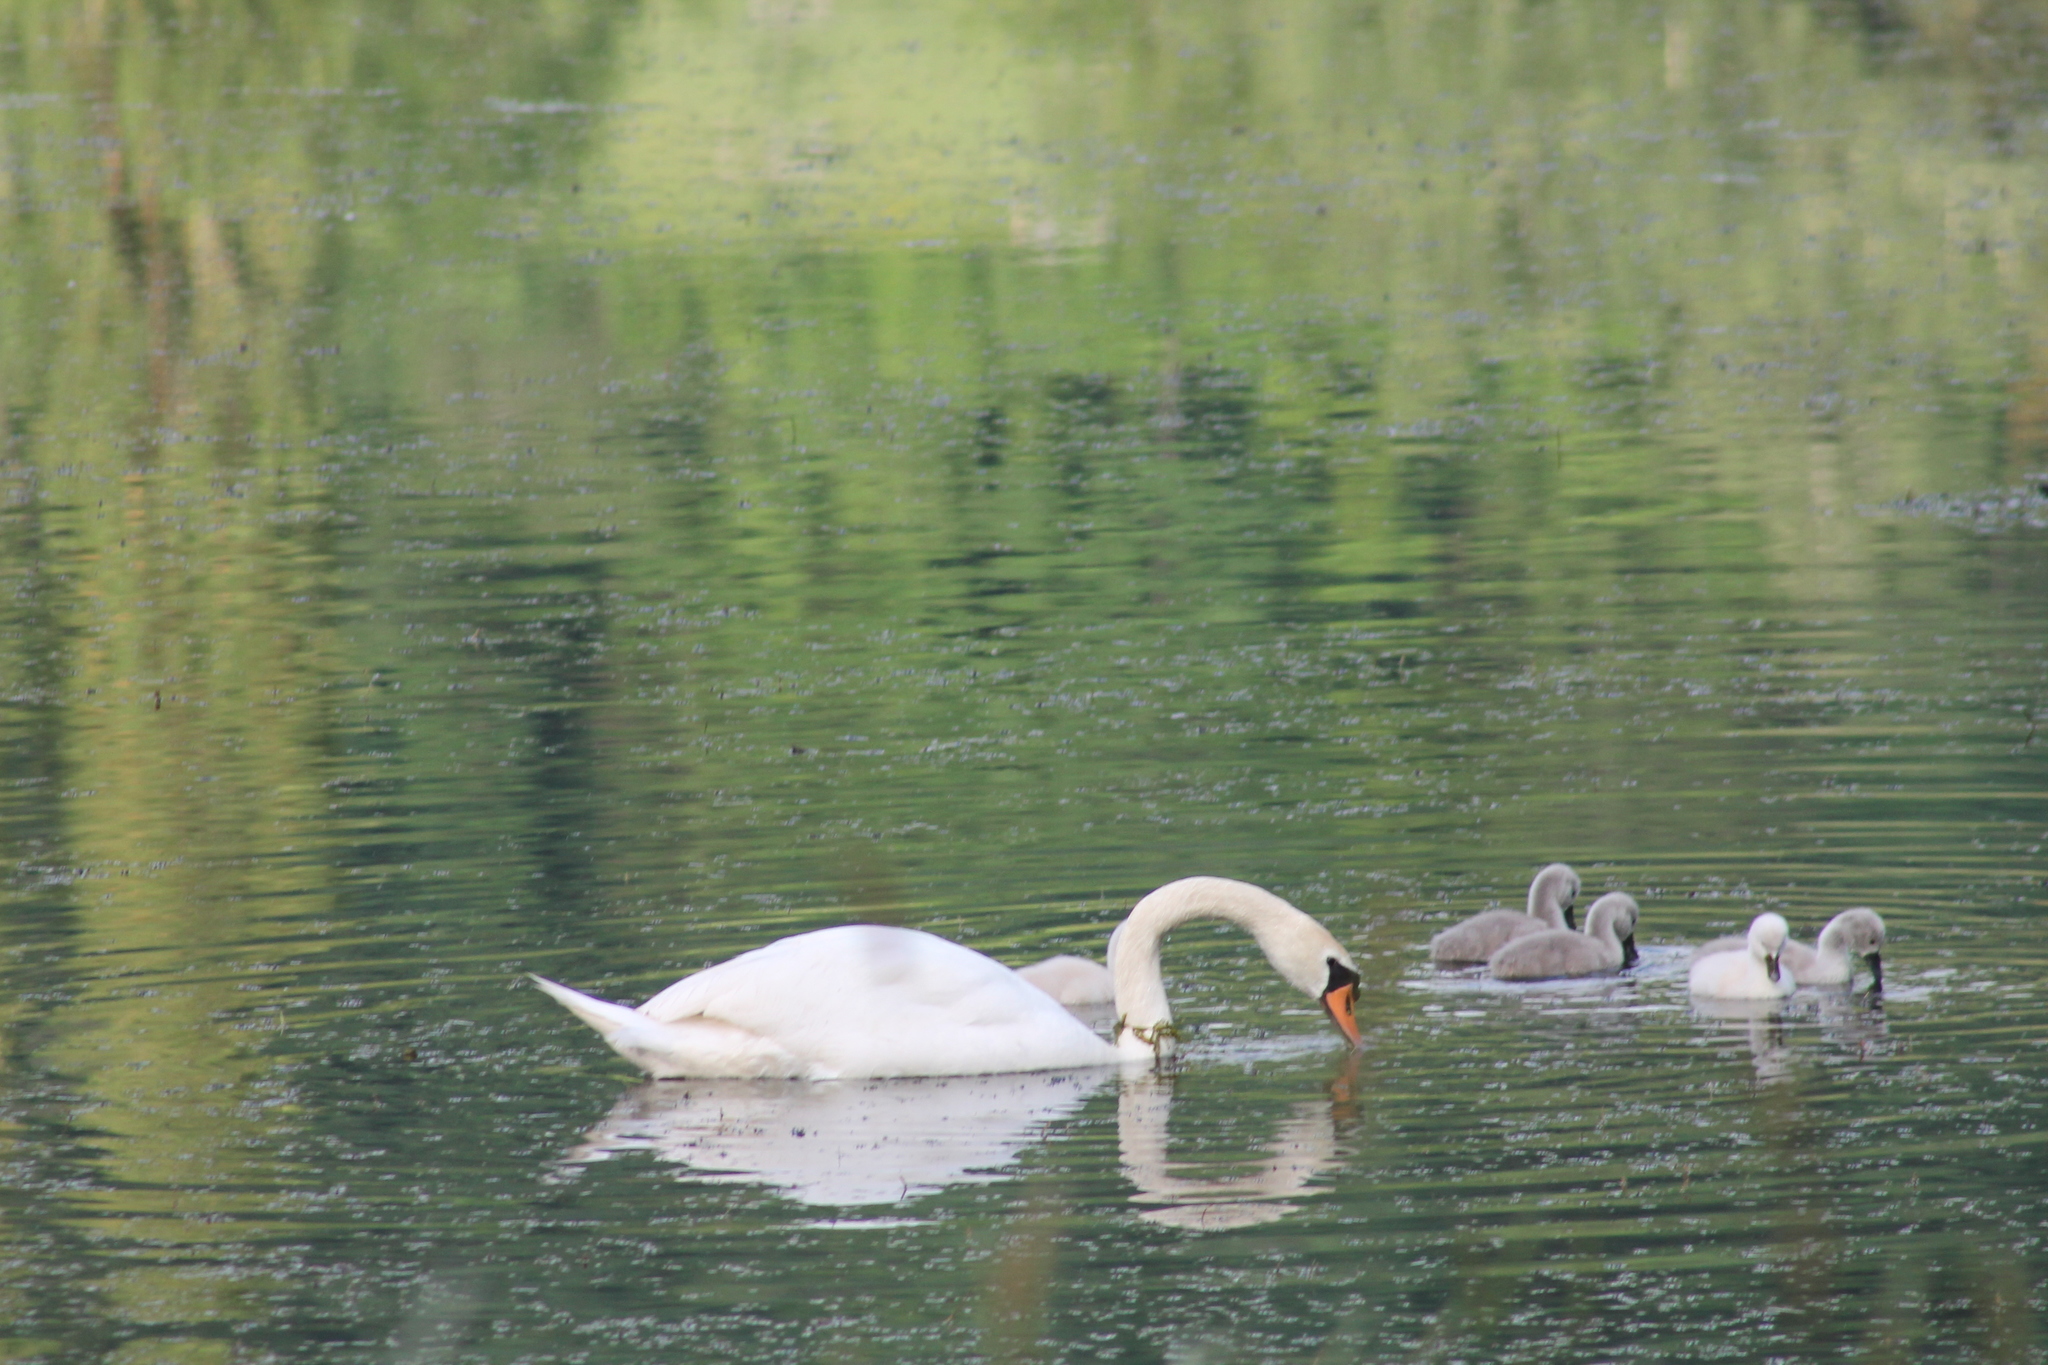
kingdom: Animalia
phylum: Chordata
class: Aves
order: Anseriformes
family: Anatidae
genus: Cygnus
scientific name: Cygnus olor
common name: Mute swan
